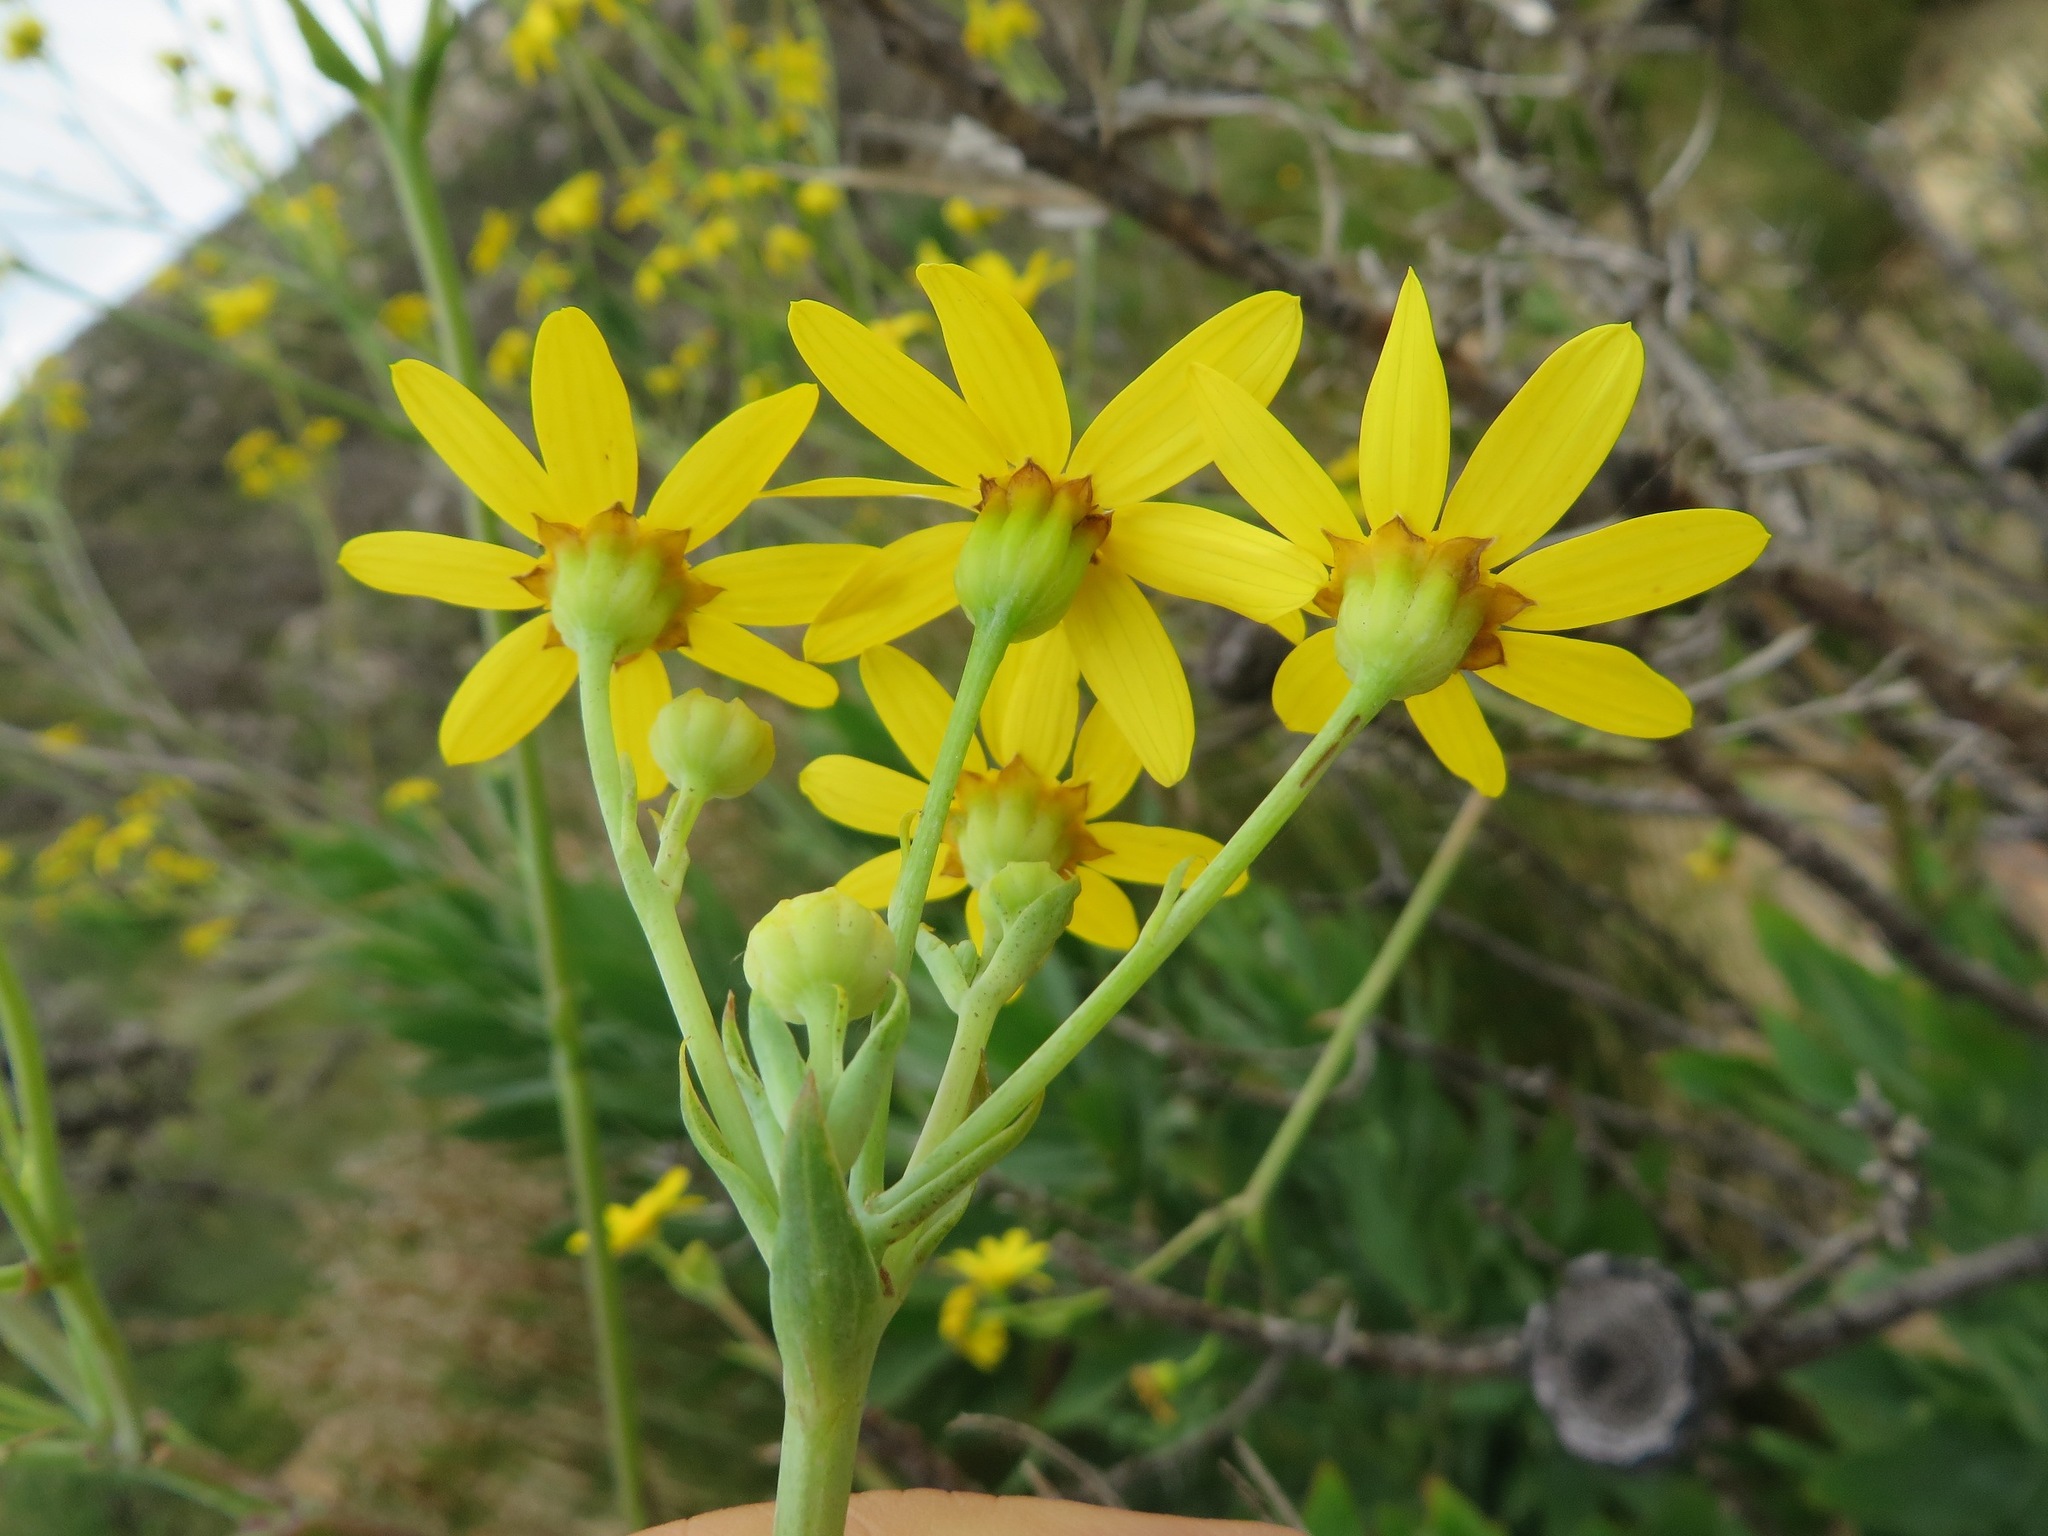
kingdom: Plantae
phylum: Tracheophyta
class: Magnoliopsida
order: Asterales
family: Asteraceae
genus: Othonna
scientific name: Othonna quinquedentata
